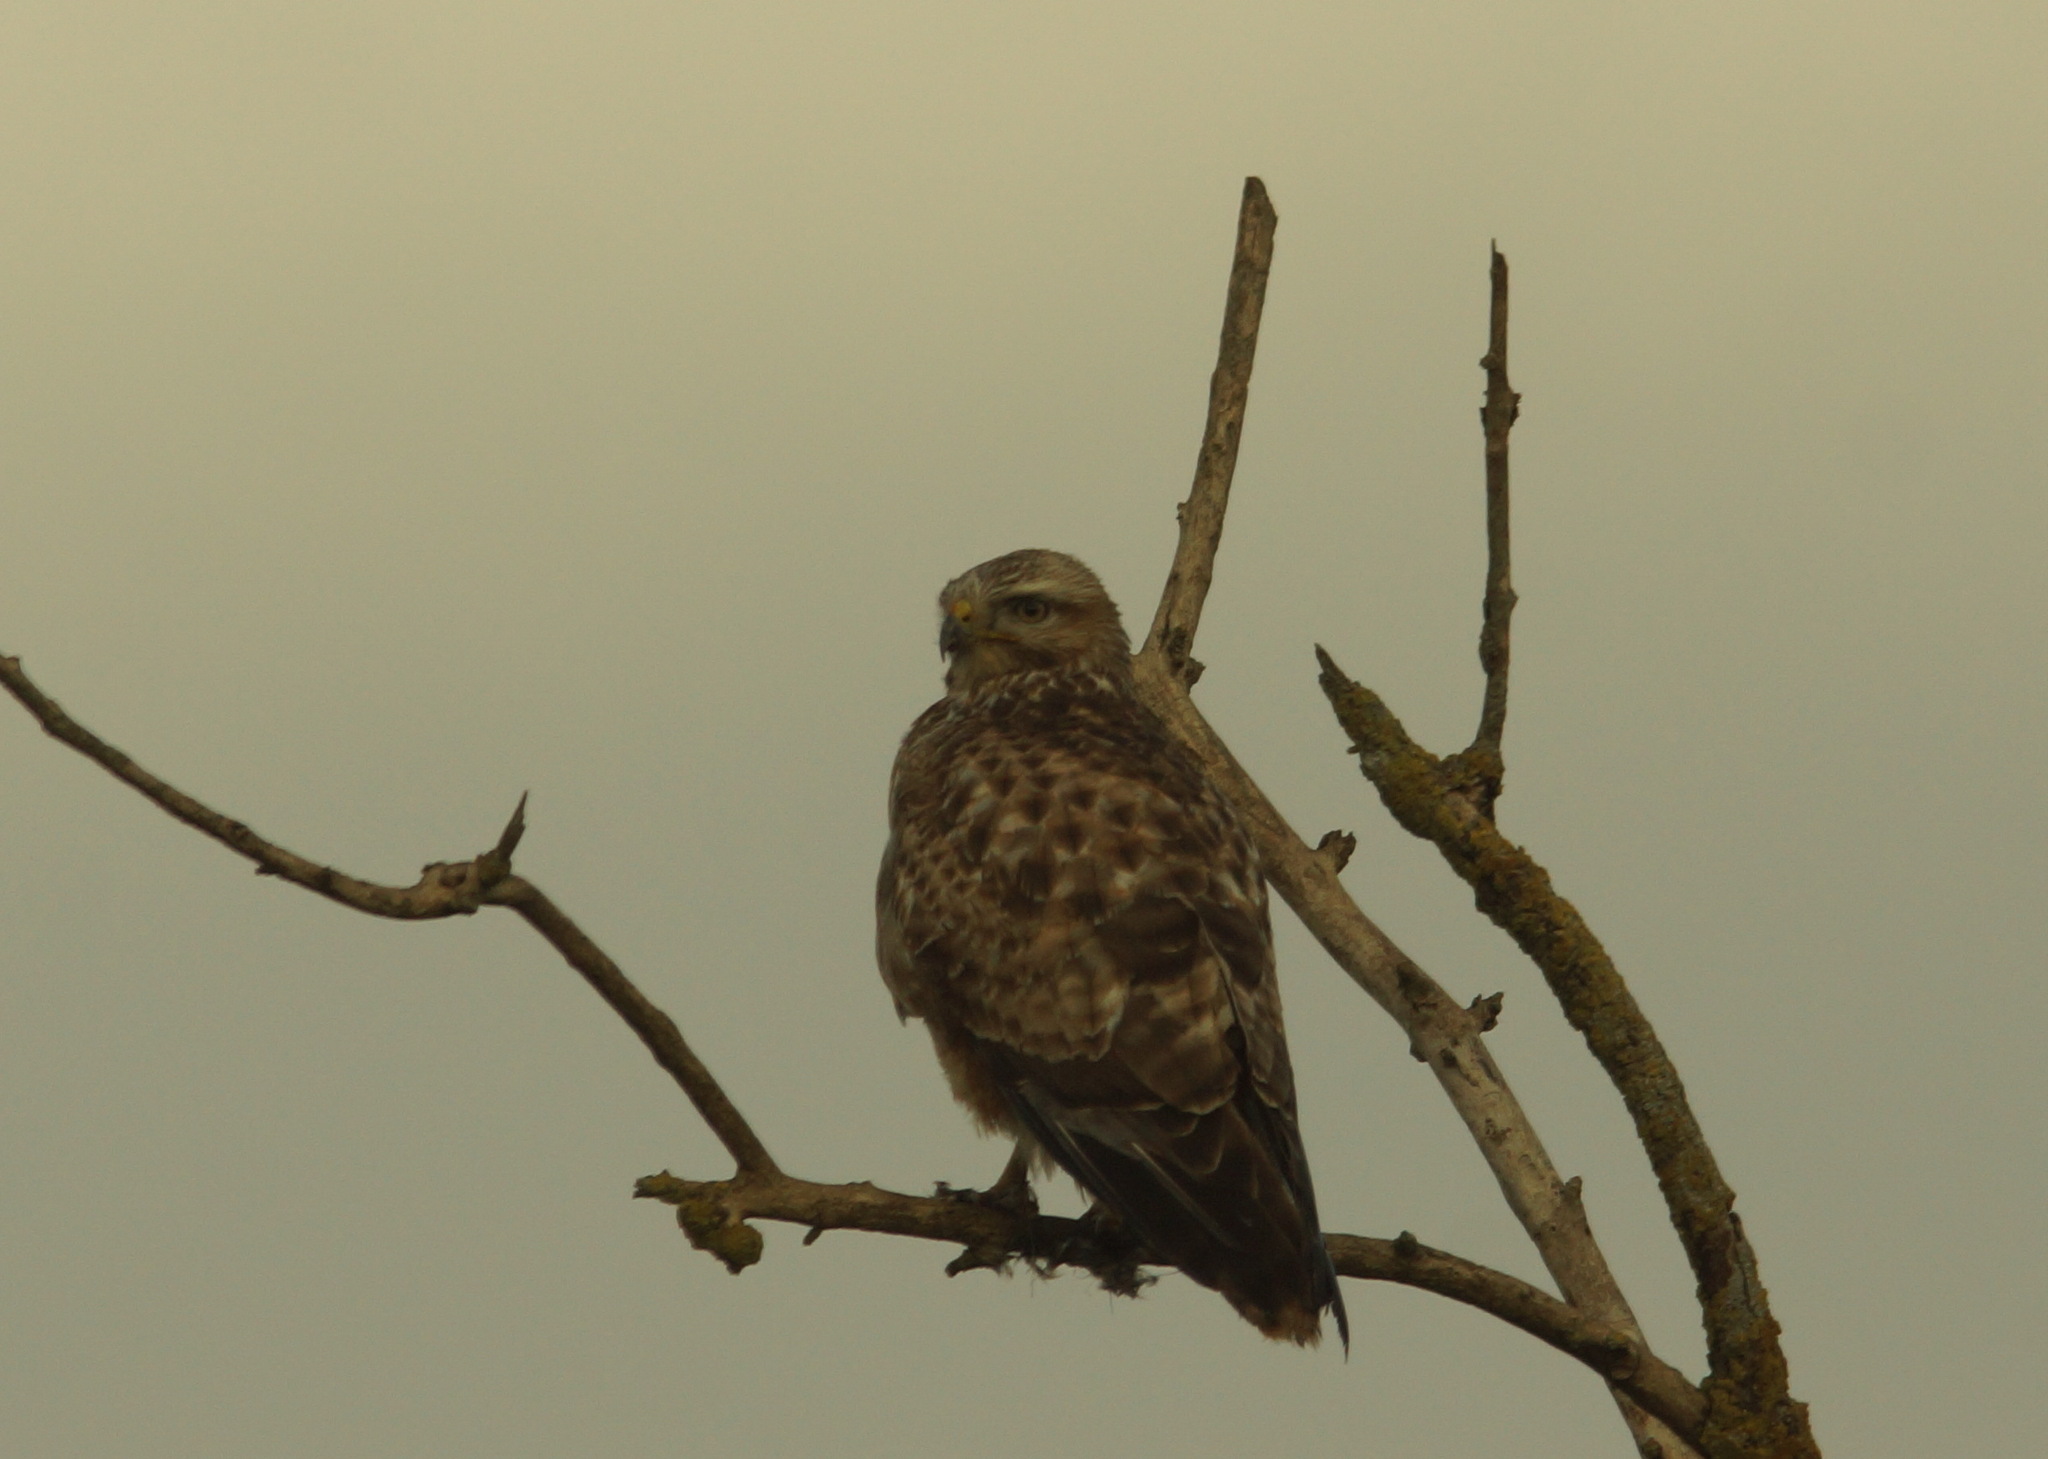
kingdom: Animalia
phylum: Chordata
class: Aves
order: Accipitriformes
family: Accipitridae
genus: Buteo
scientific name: Buteo buteo
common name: Common buzzard
